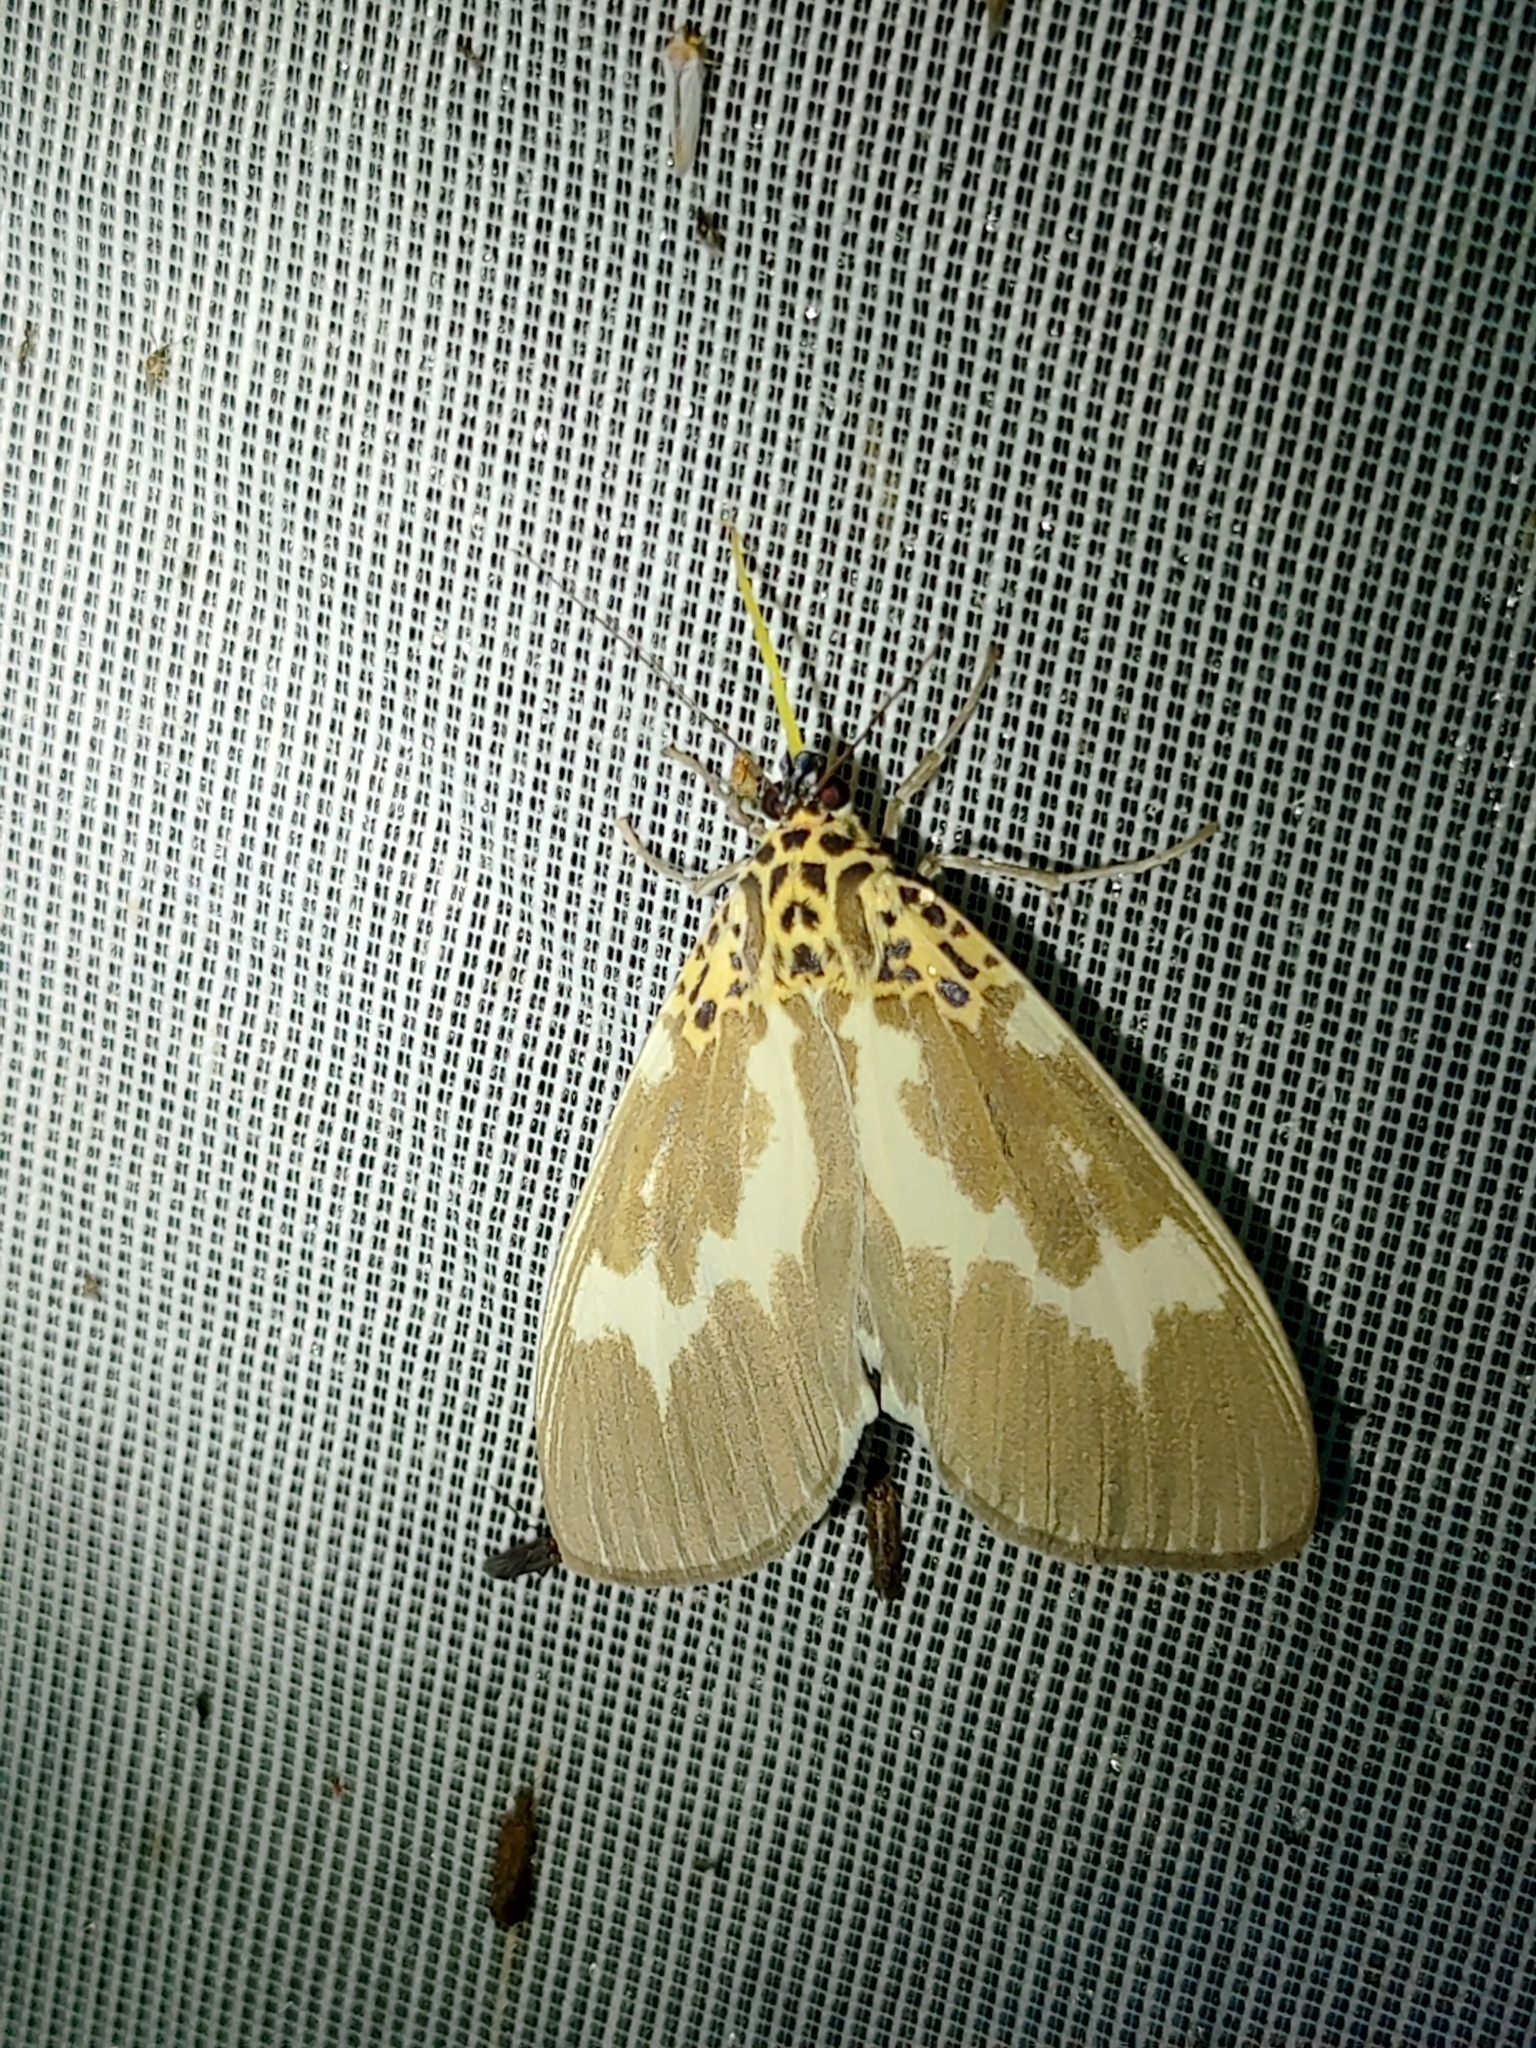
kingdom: Animalia
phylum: Arthropoda
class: Insecta
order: Lepidoptera
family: Erebidae
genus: Asota
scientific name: Asota tortuosa
